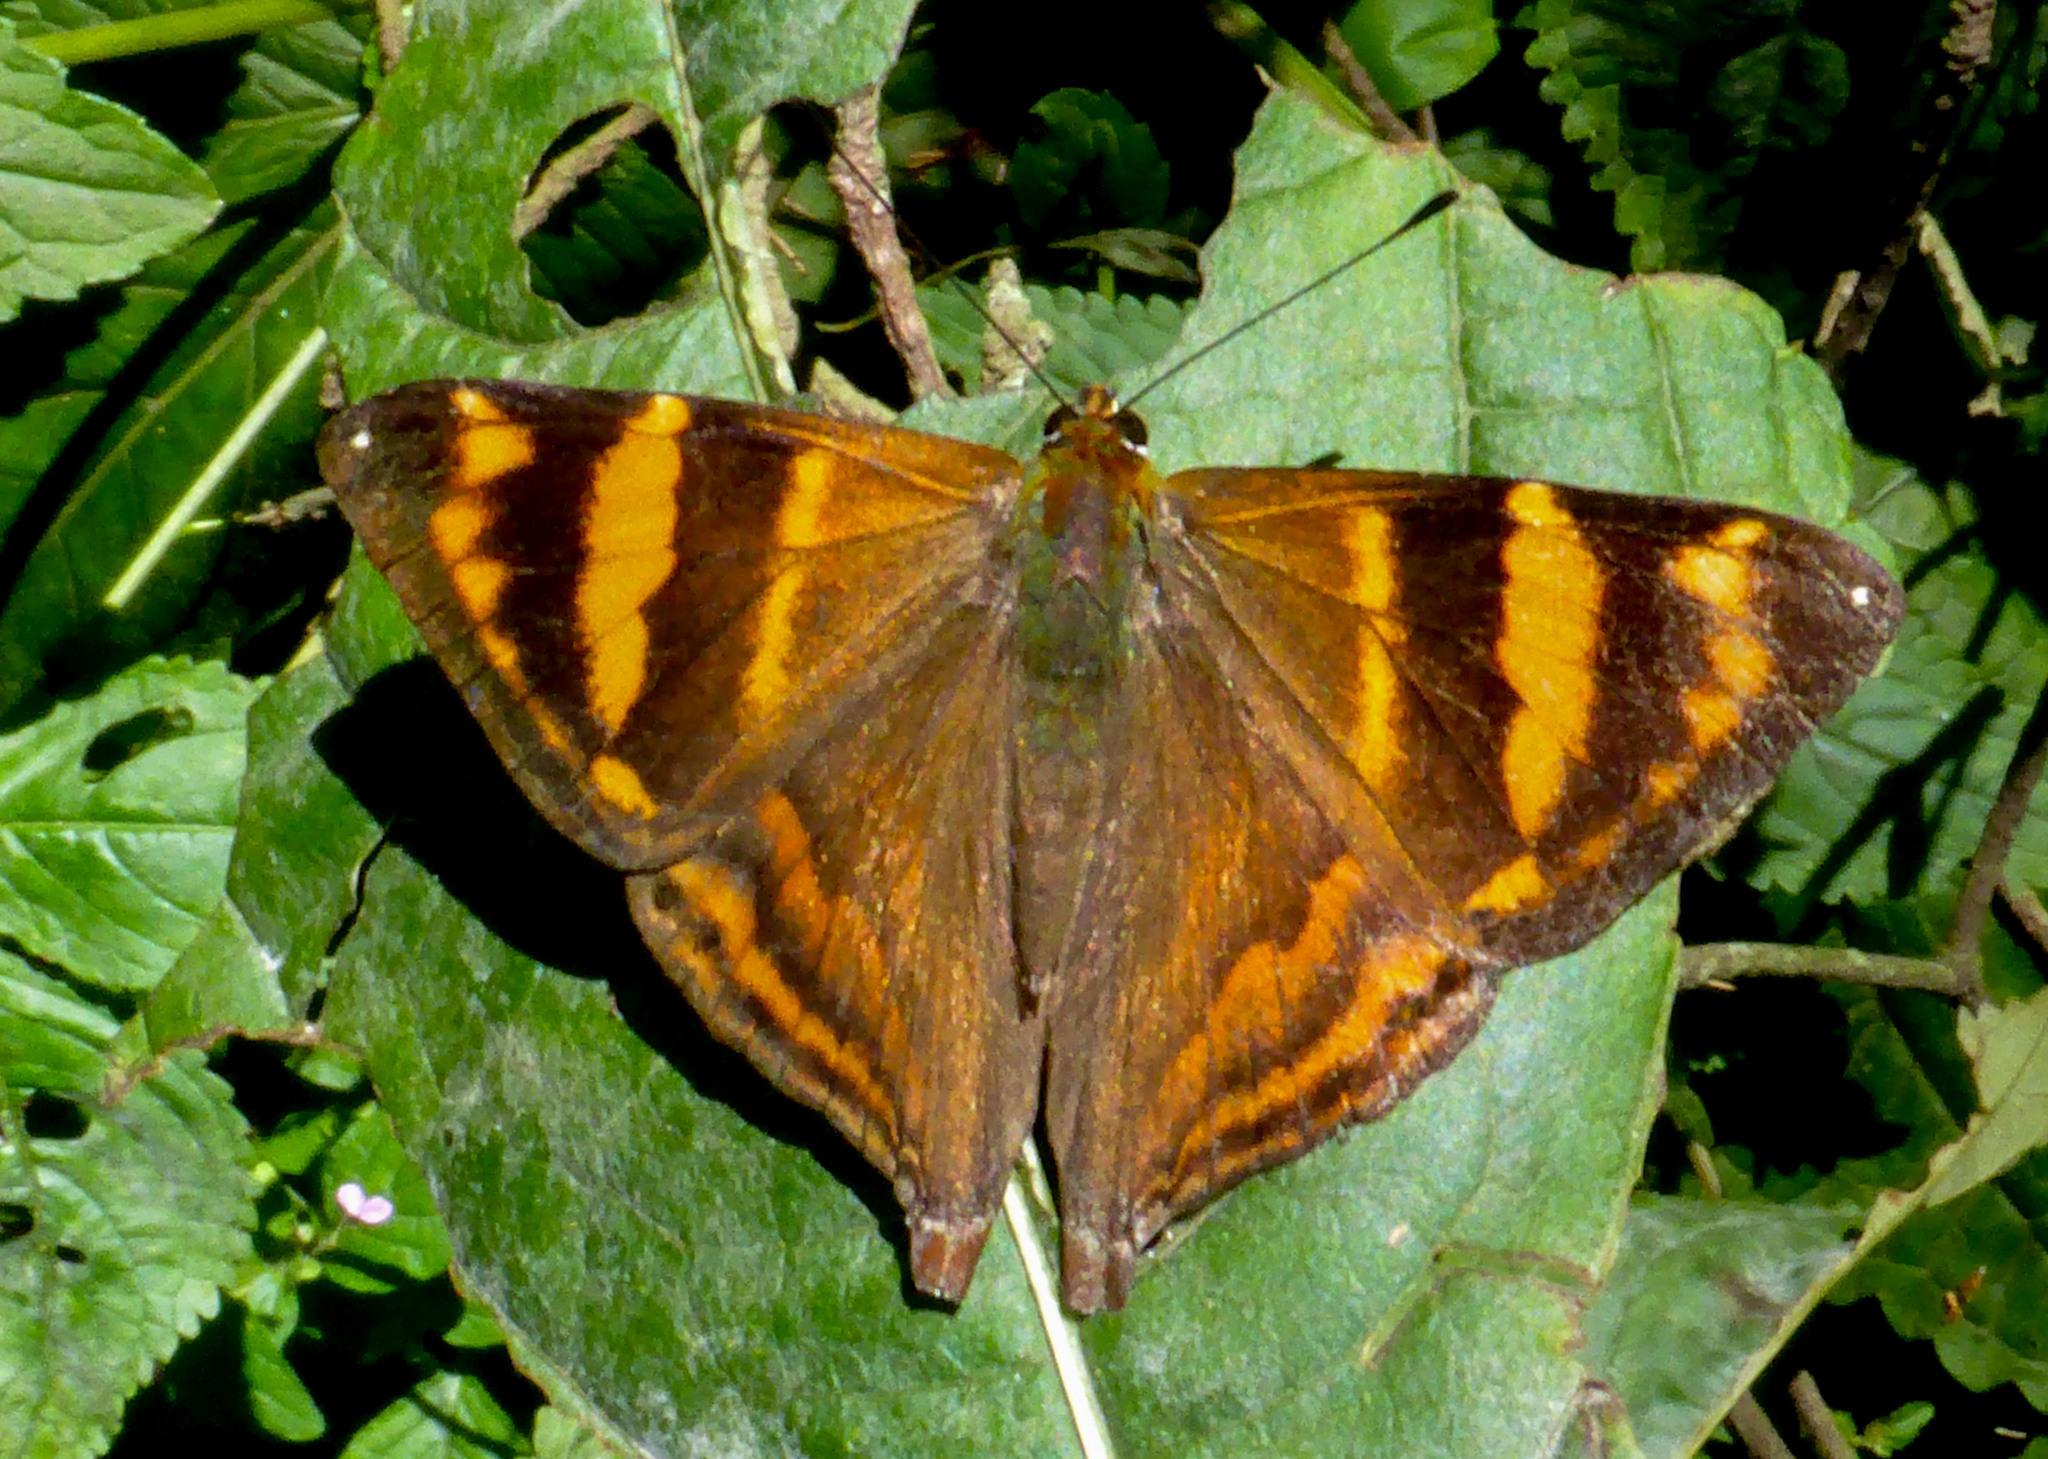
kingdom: Animalia
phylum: Arthropoda
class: Insecta
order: Lepidoptera
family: Lycaenidae
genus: Dodona
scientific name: Dodona ouida
